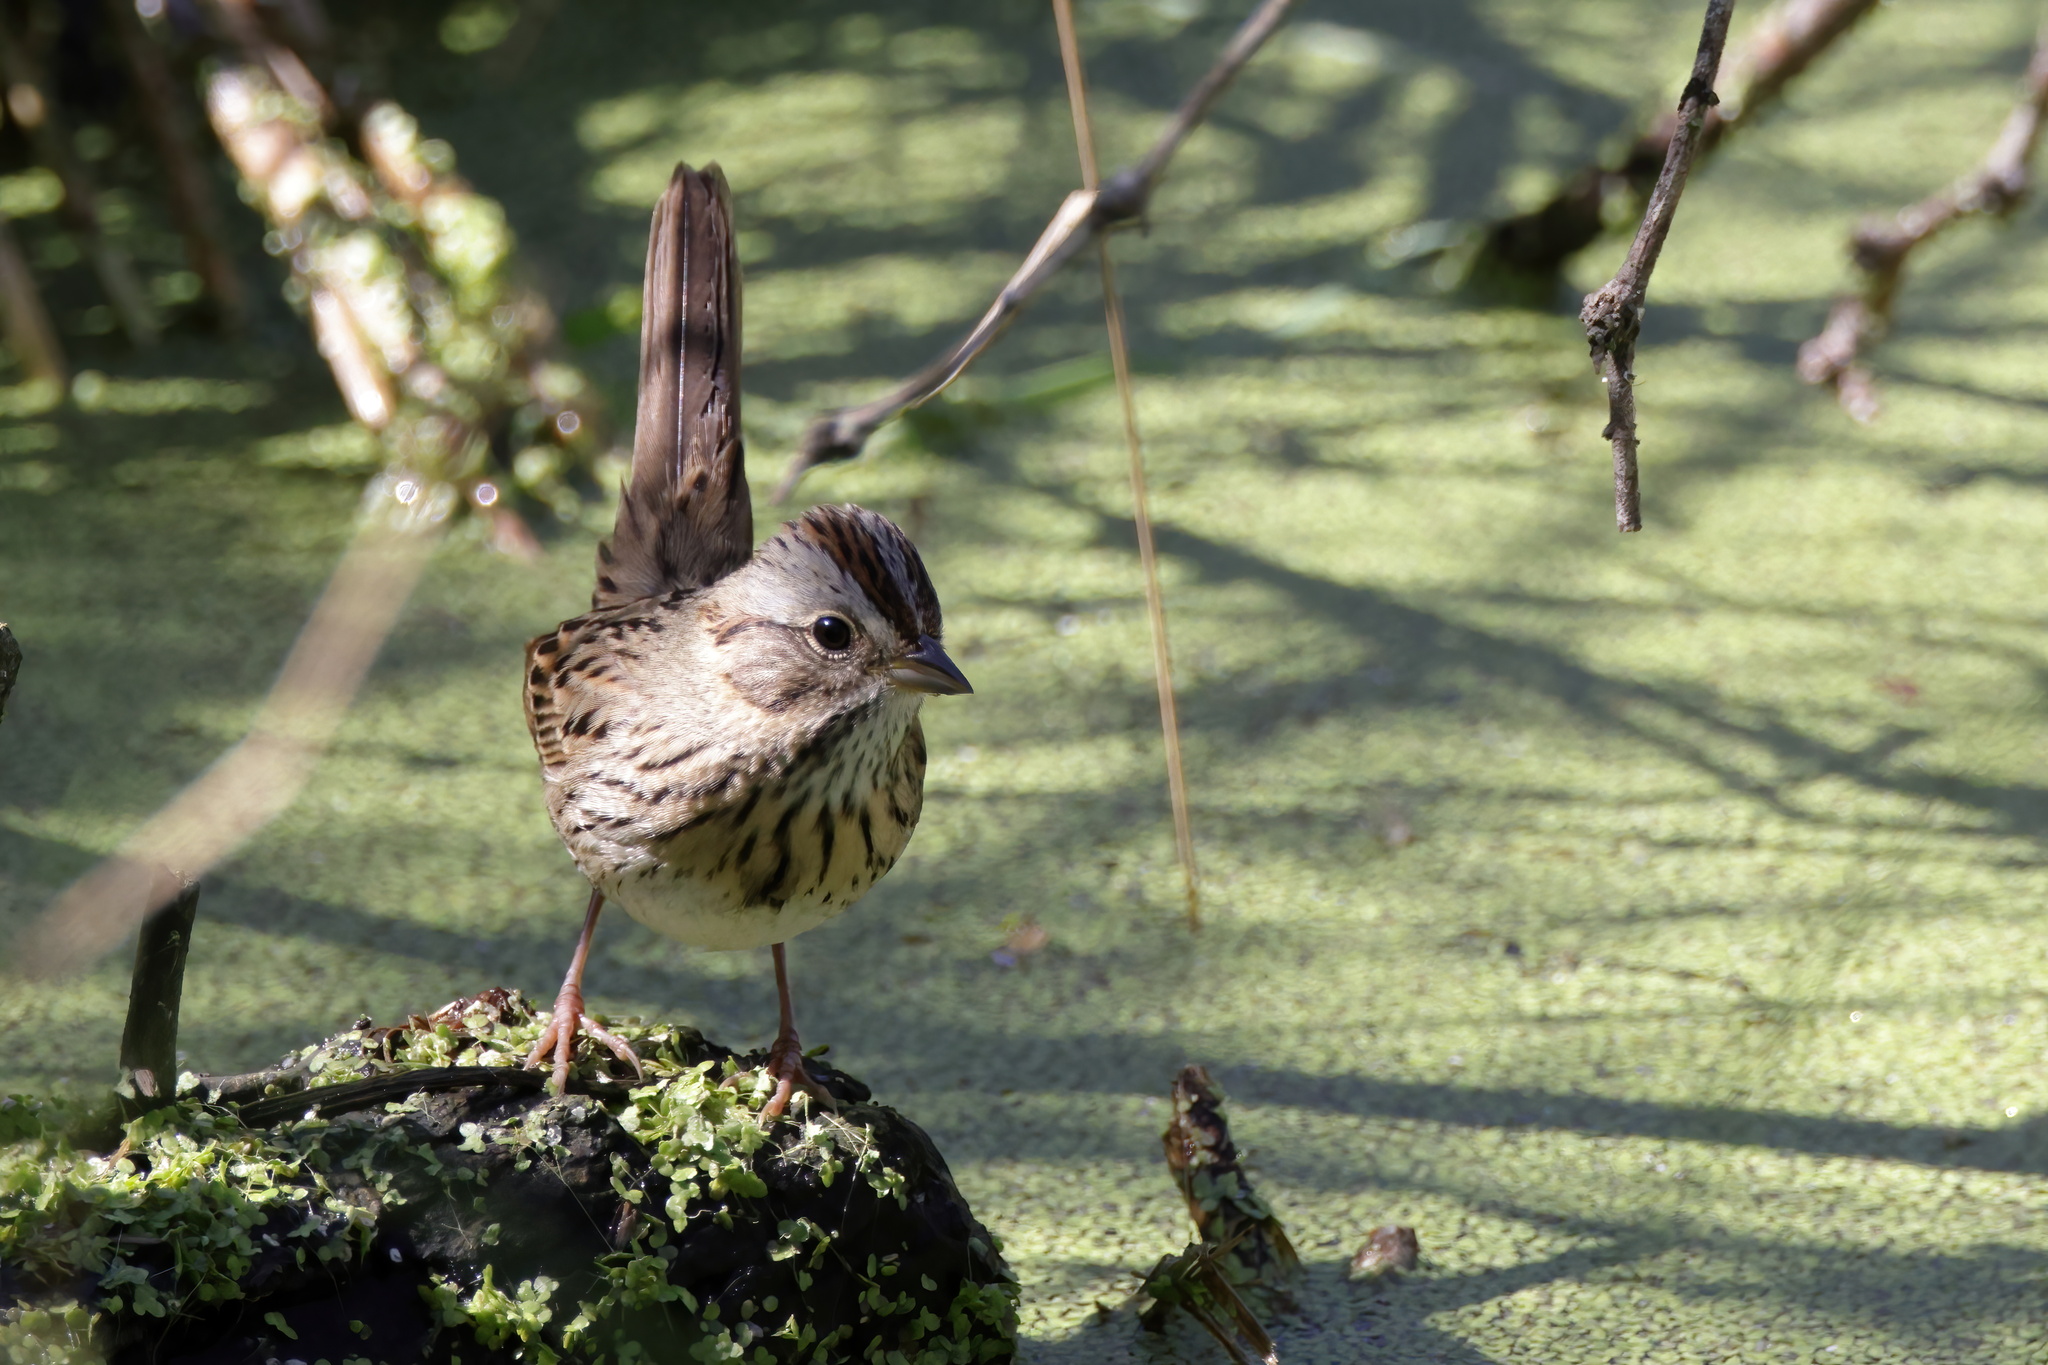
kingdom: Animalia
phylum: Chordata
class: Aves
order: Passeriformes
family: Passerellidae
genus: Melospiza
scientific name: Melospiza lincolnii
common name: Lincoln's sparrow
